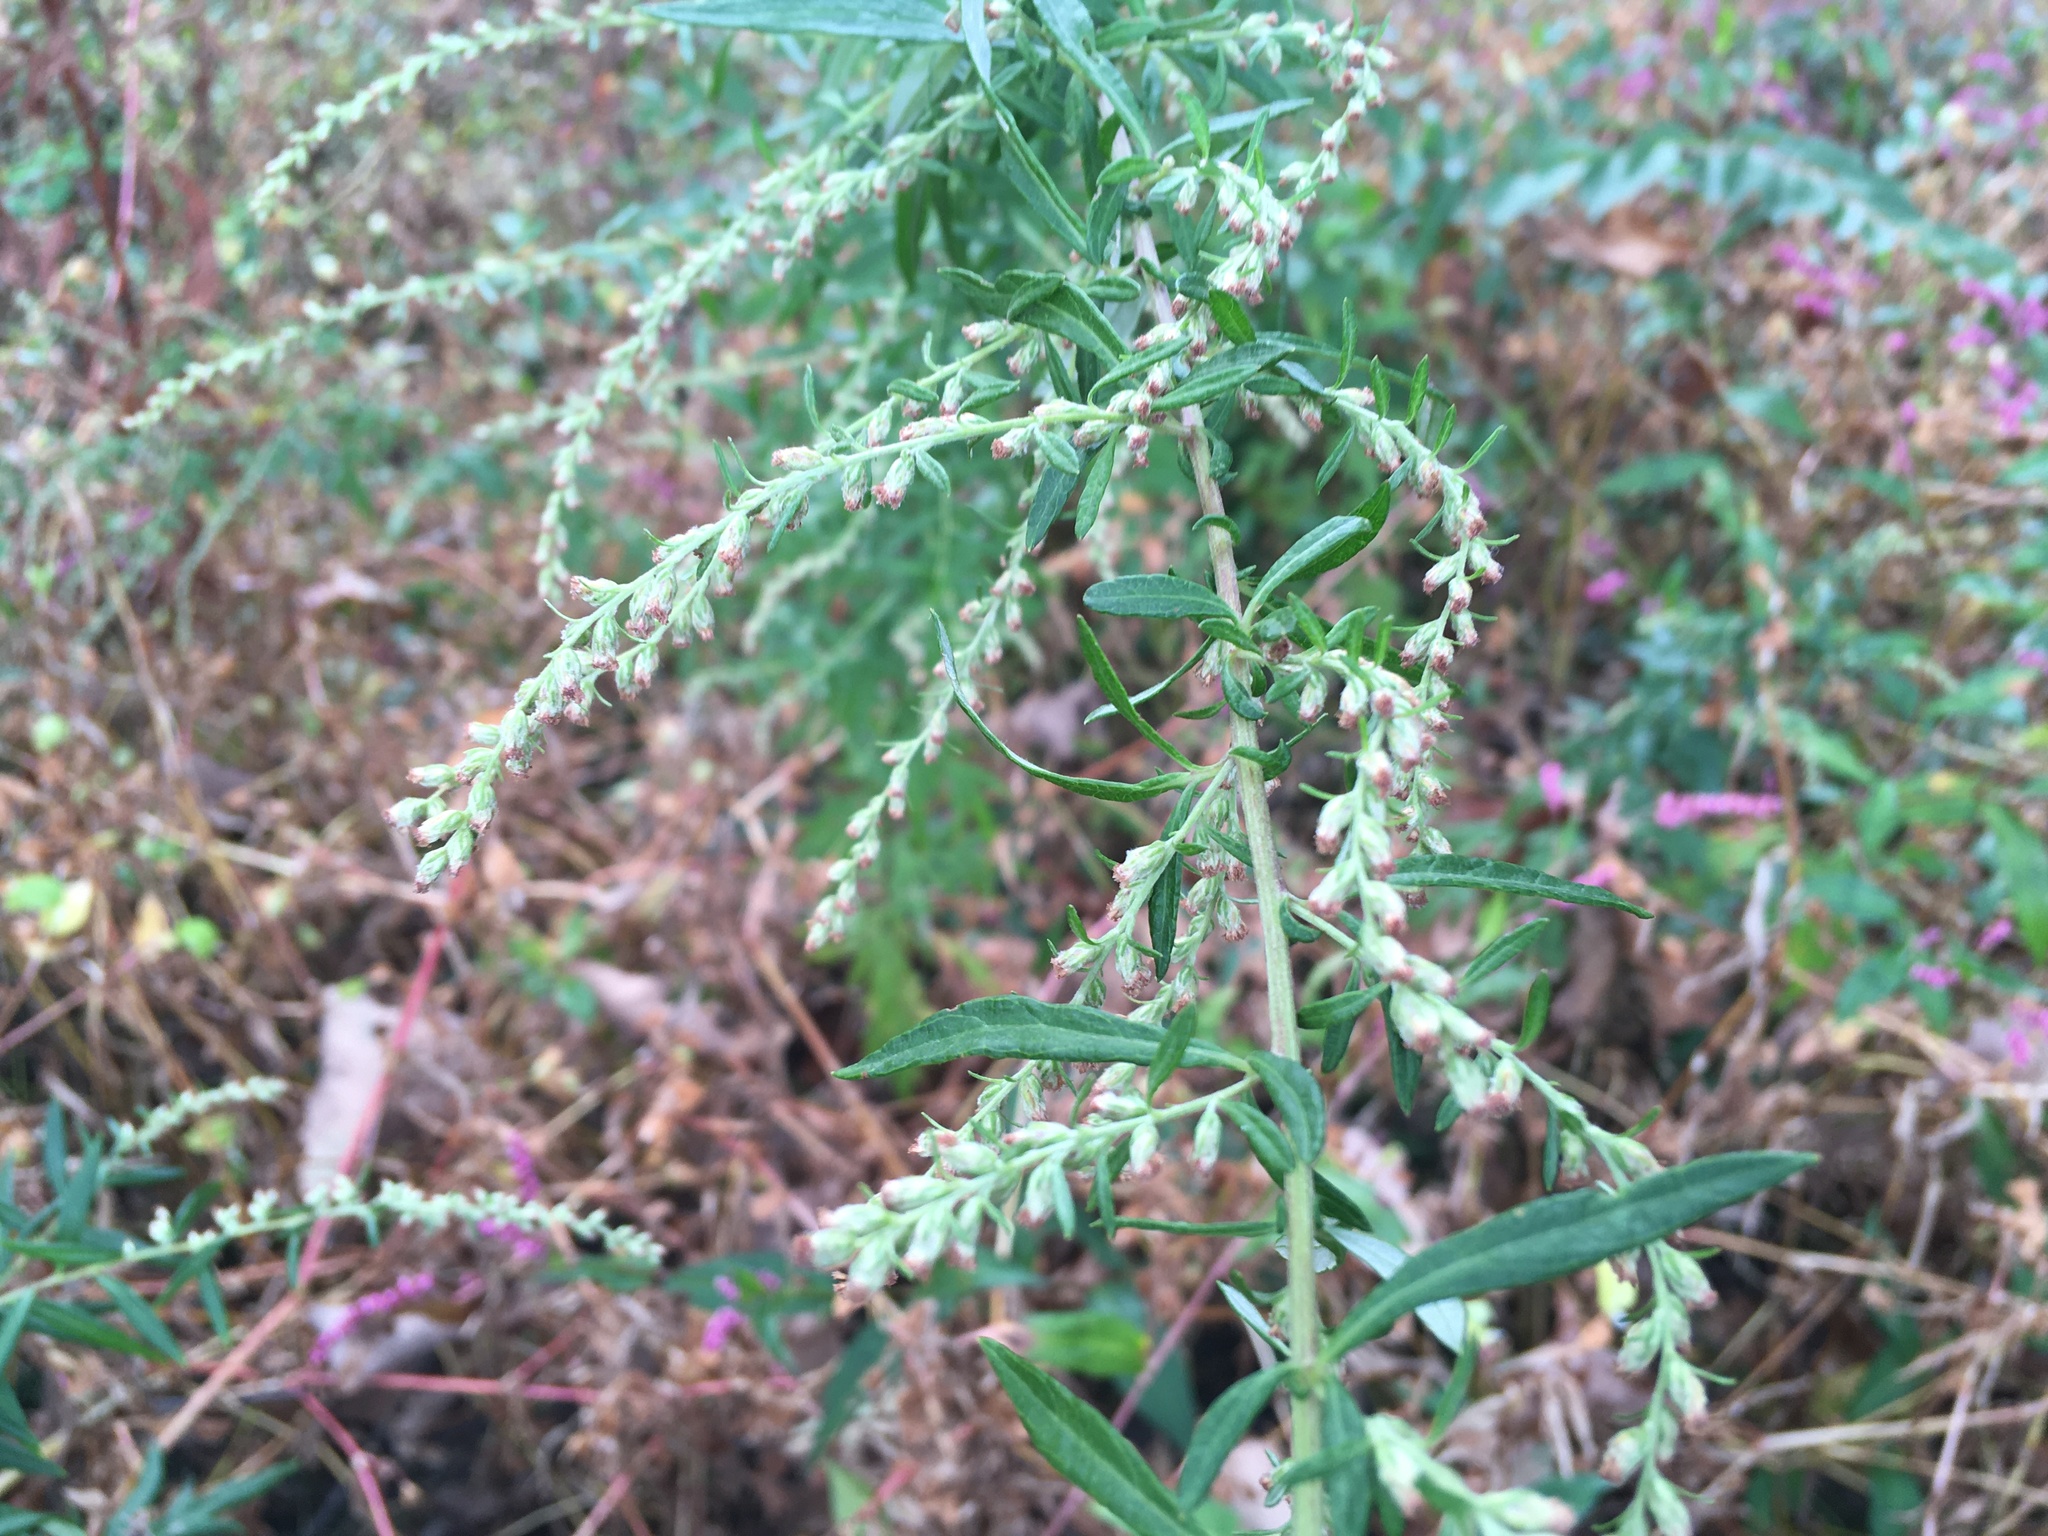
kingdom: Plantae
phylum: Tracheophyta
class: Magnoliopsida
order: Asterales
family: Asteraceae
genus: Artemisia
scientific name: Artemisia vulgaris
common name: Mugwort
